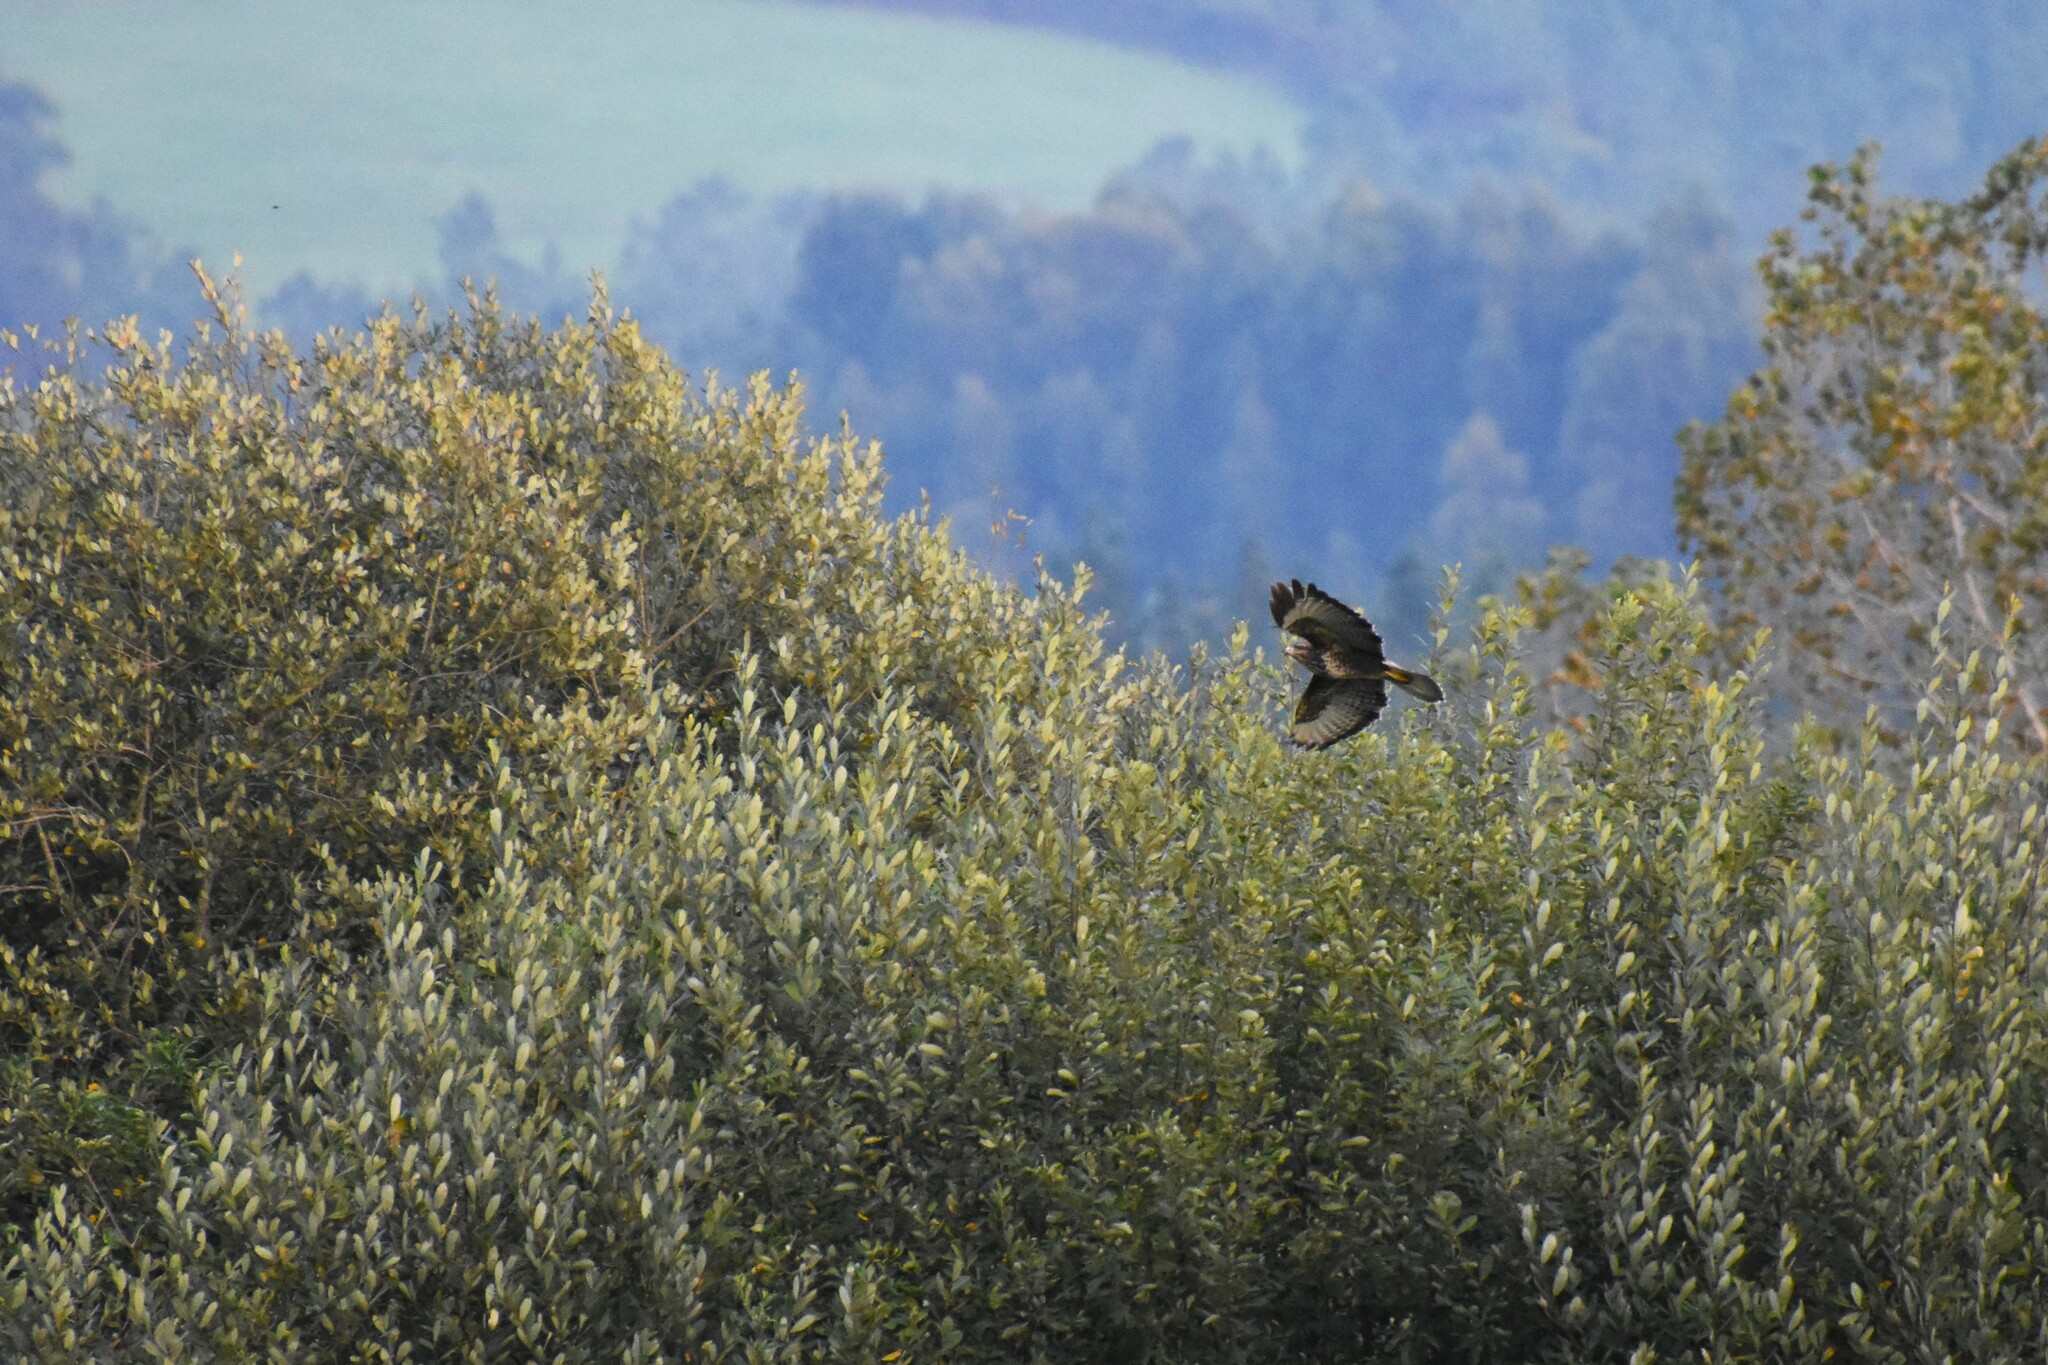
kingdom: Animalia
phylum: Chordata
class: Aves
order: Accipitriformes
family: Accipitridae
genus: Buteo
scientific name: Buteo buteo
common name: Common buzzard
